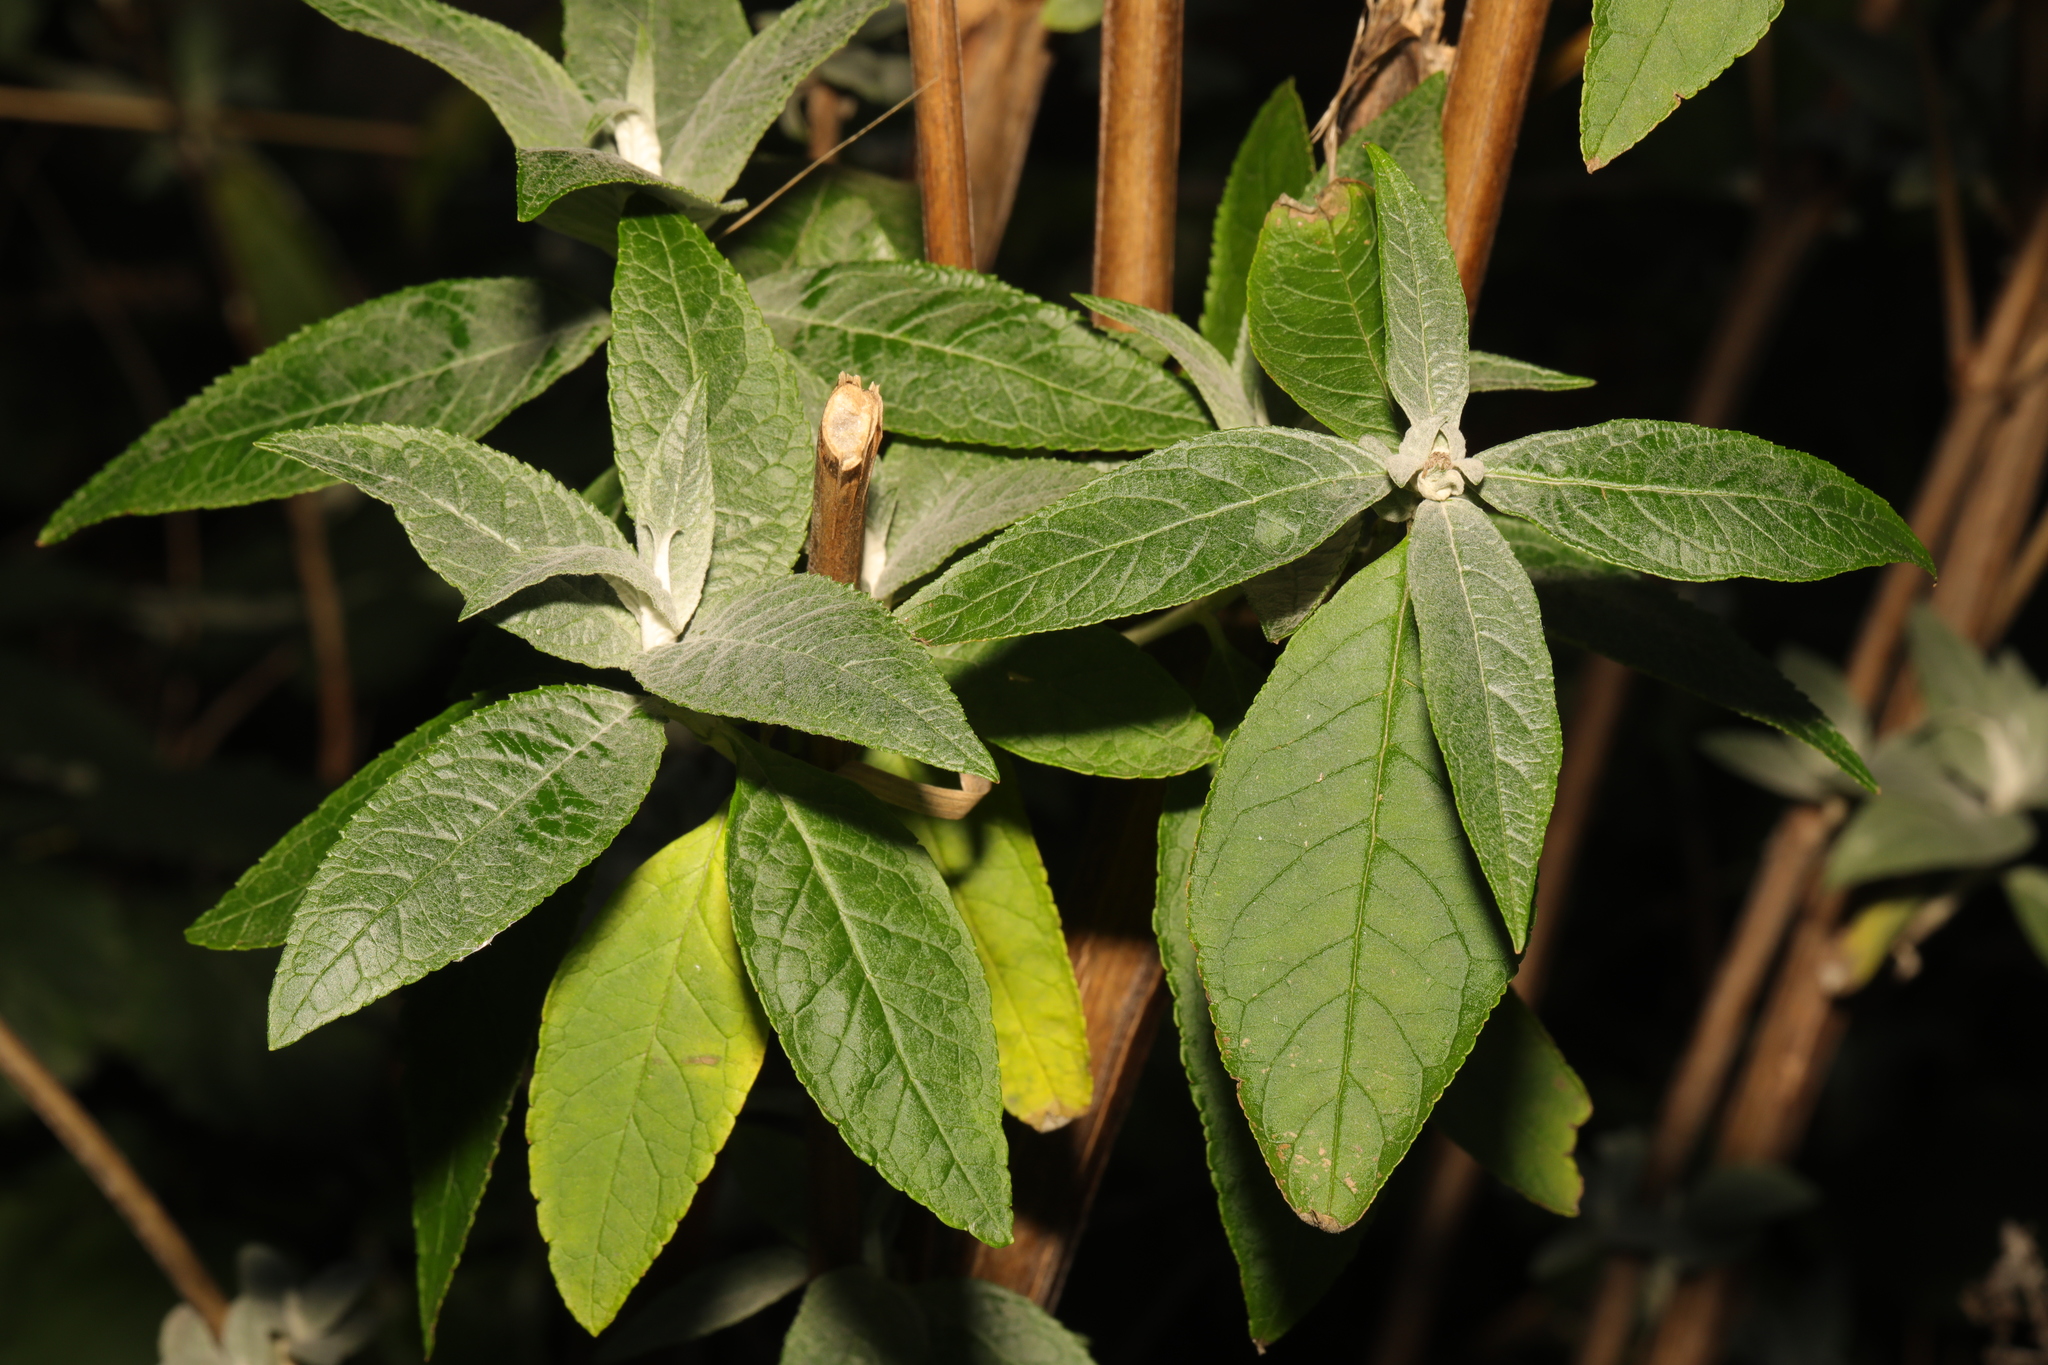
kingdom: Plantae
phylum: Tracheophyta
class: Magnoliopsida
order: Lamiales
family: Scrophulariaceae
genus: Buddleja
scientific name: Buddleja davidii
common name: Butterfly-bush
